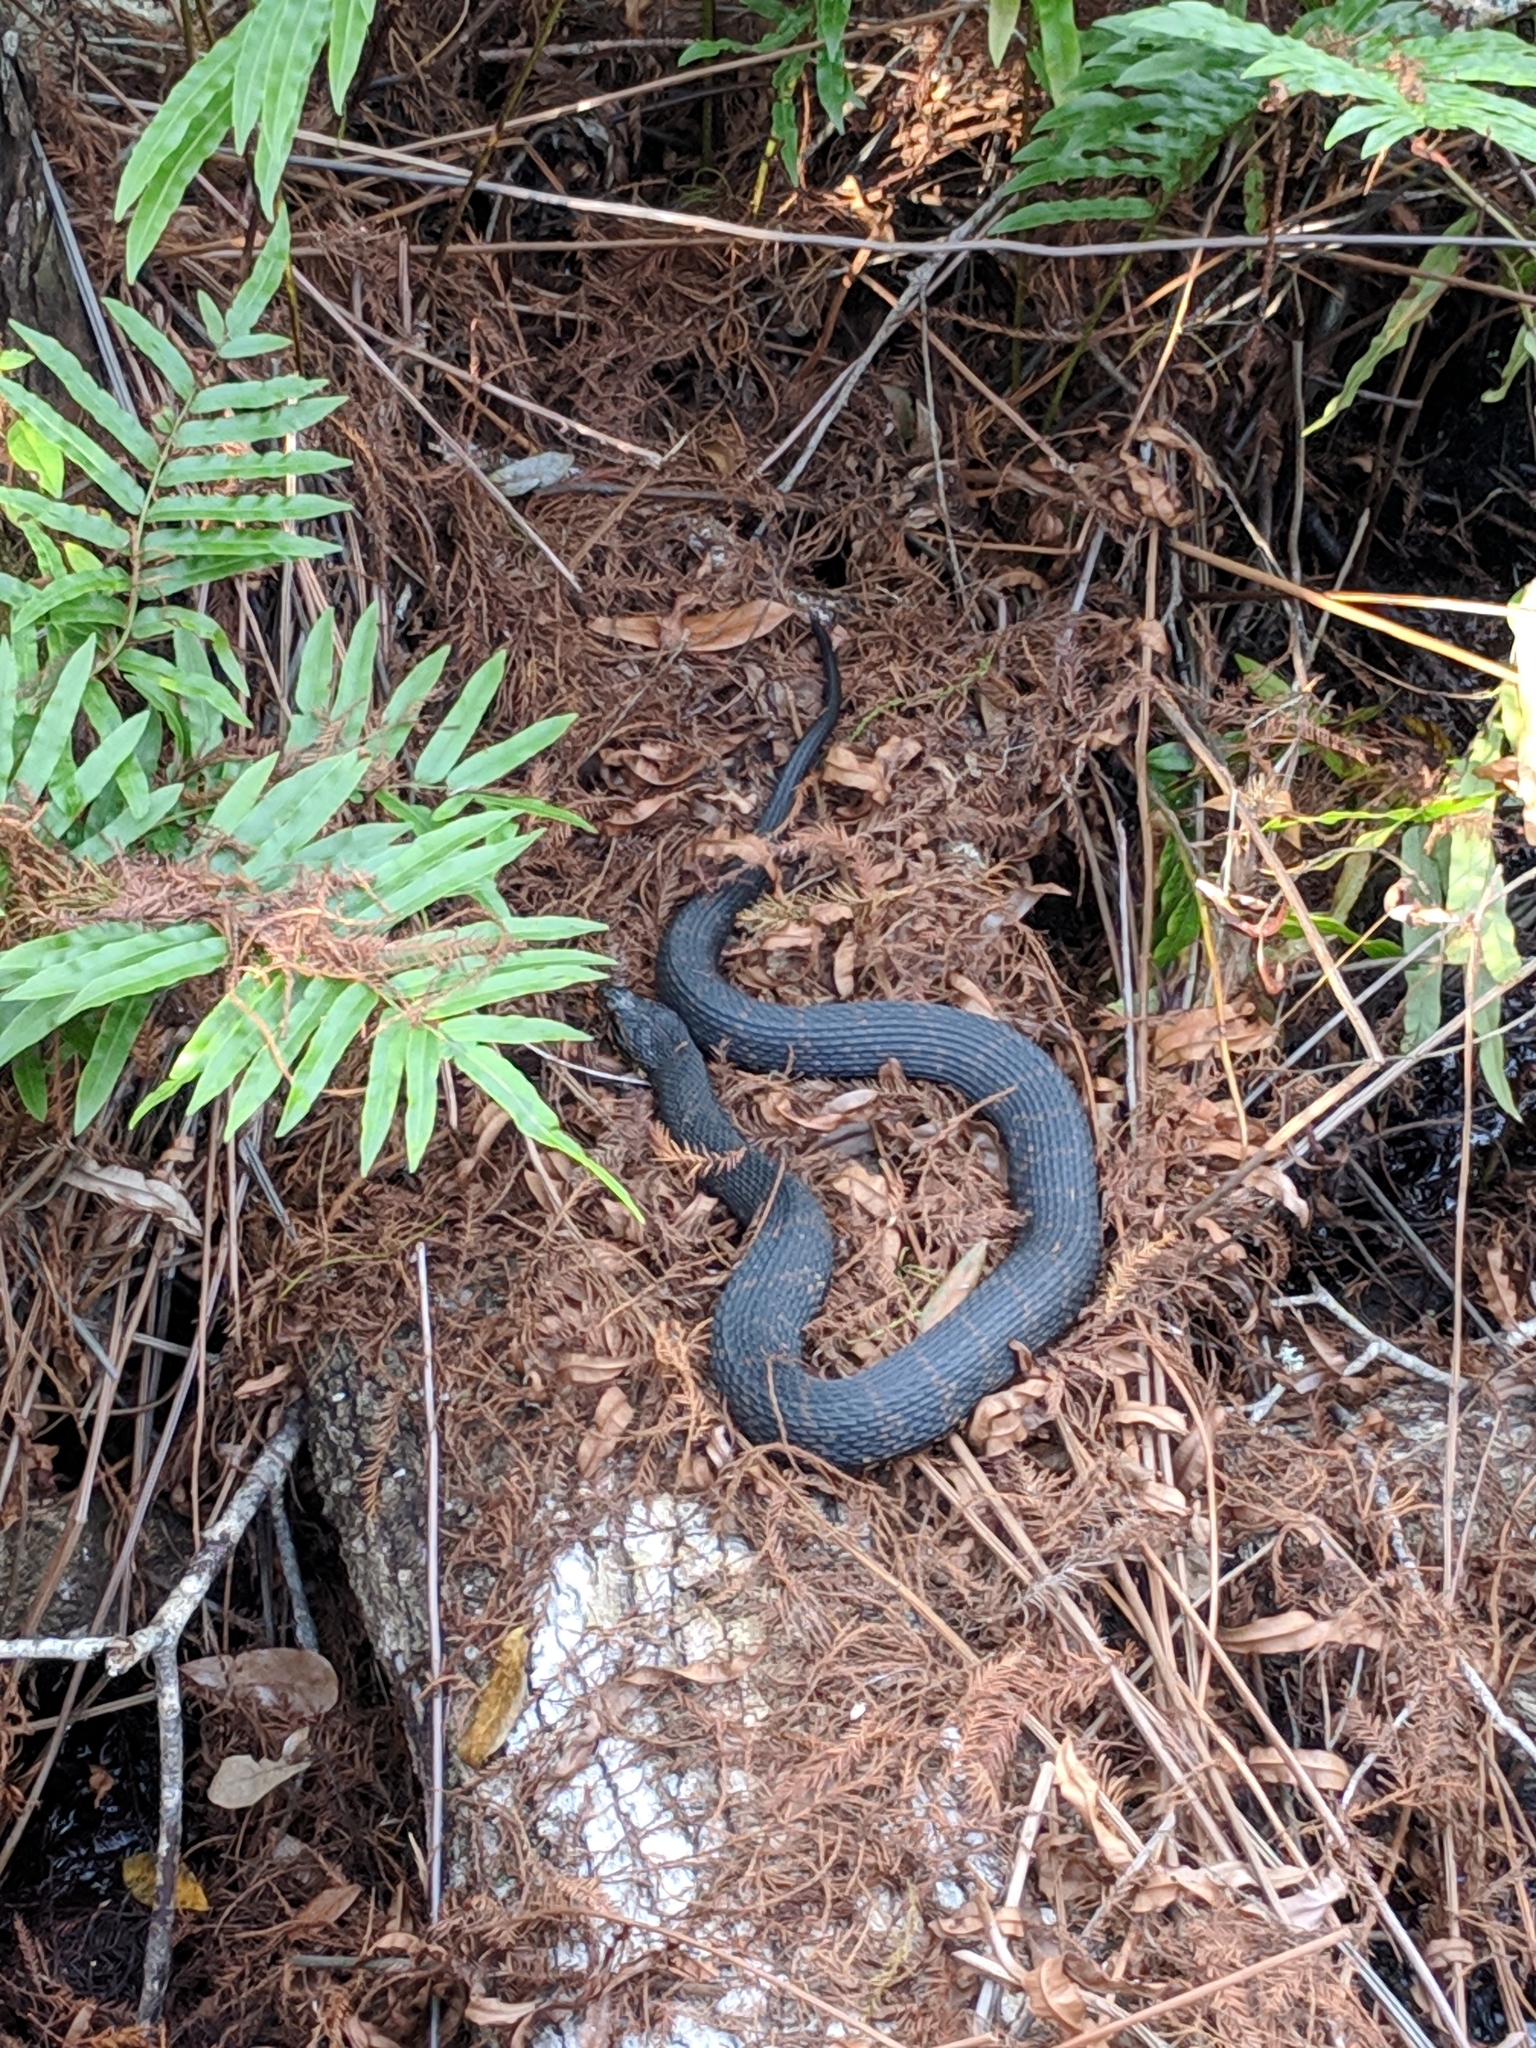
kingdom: Animalia
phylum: Chordata
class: Squamata
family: Colubridae
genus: Nerodia
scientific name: Nerodia fasciata
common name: Southern water snake
